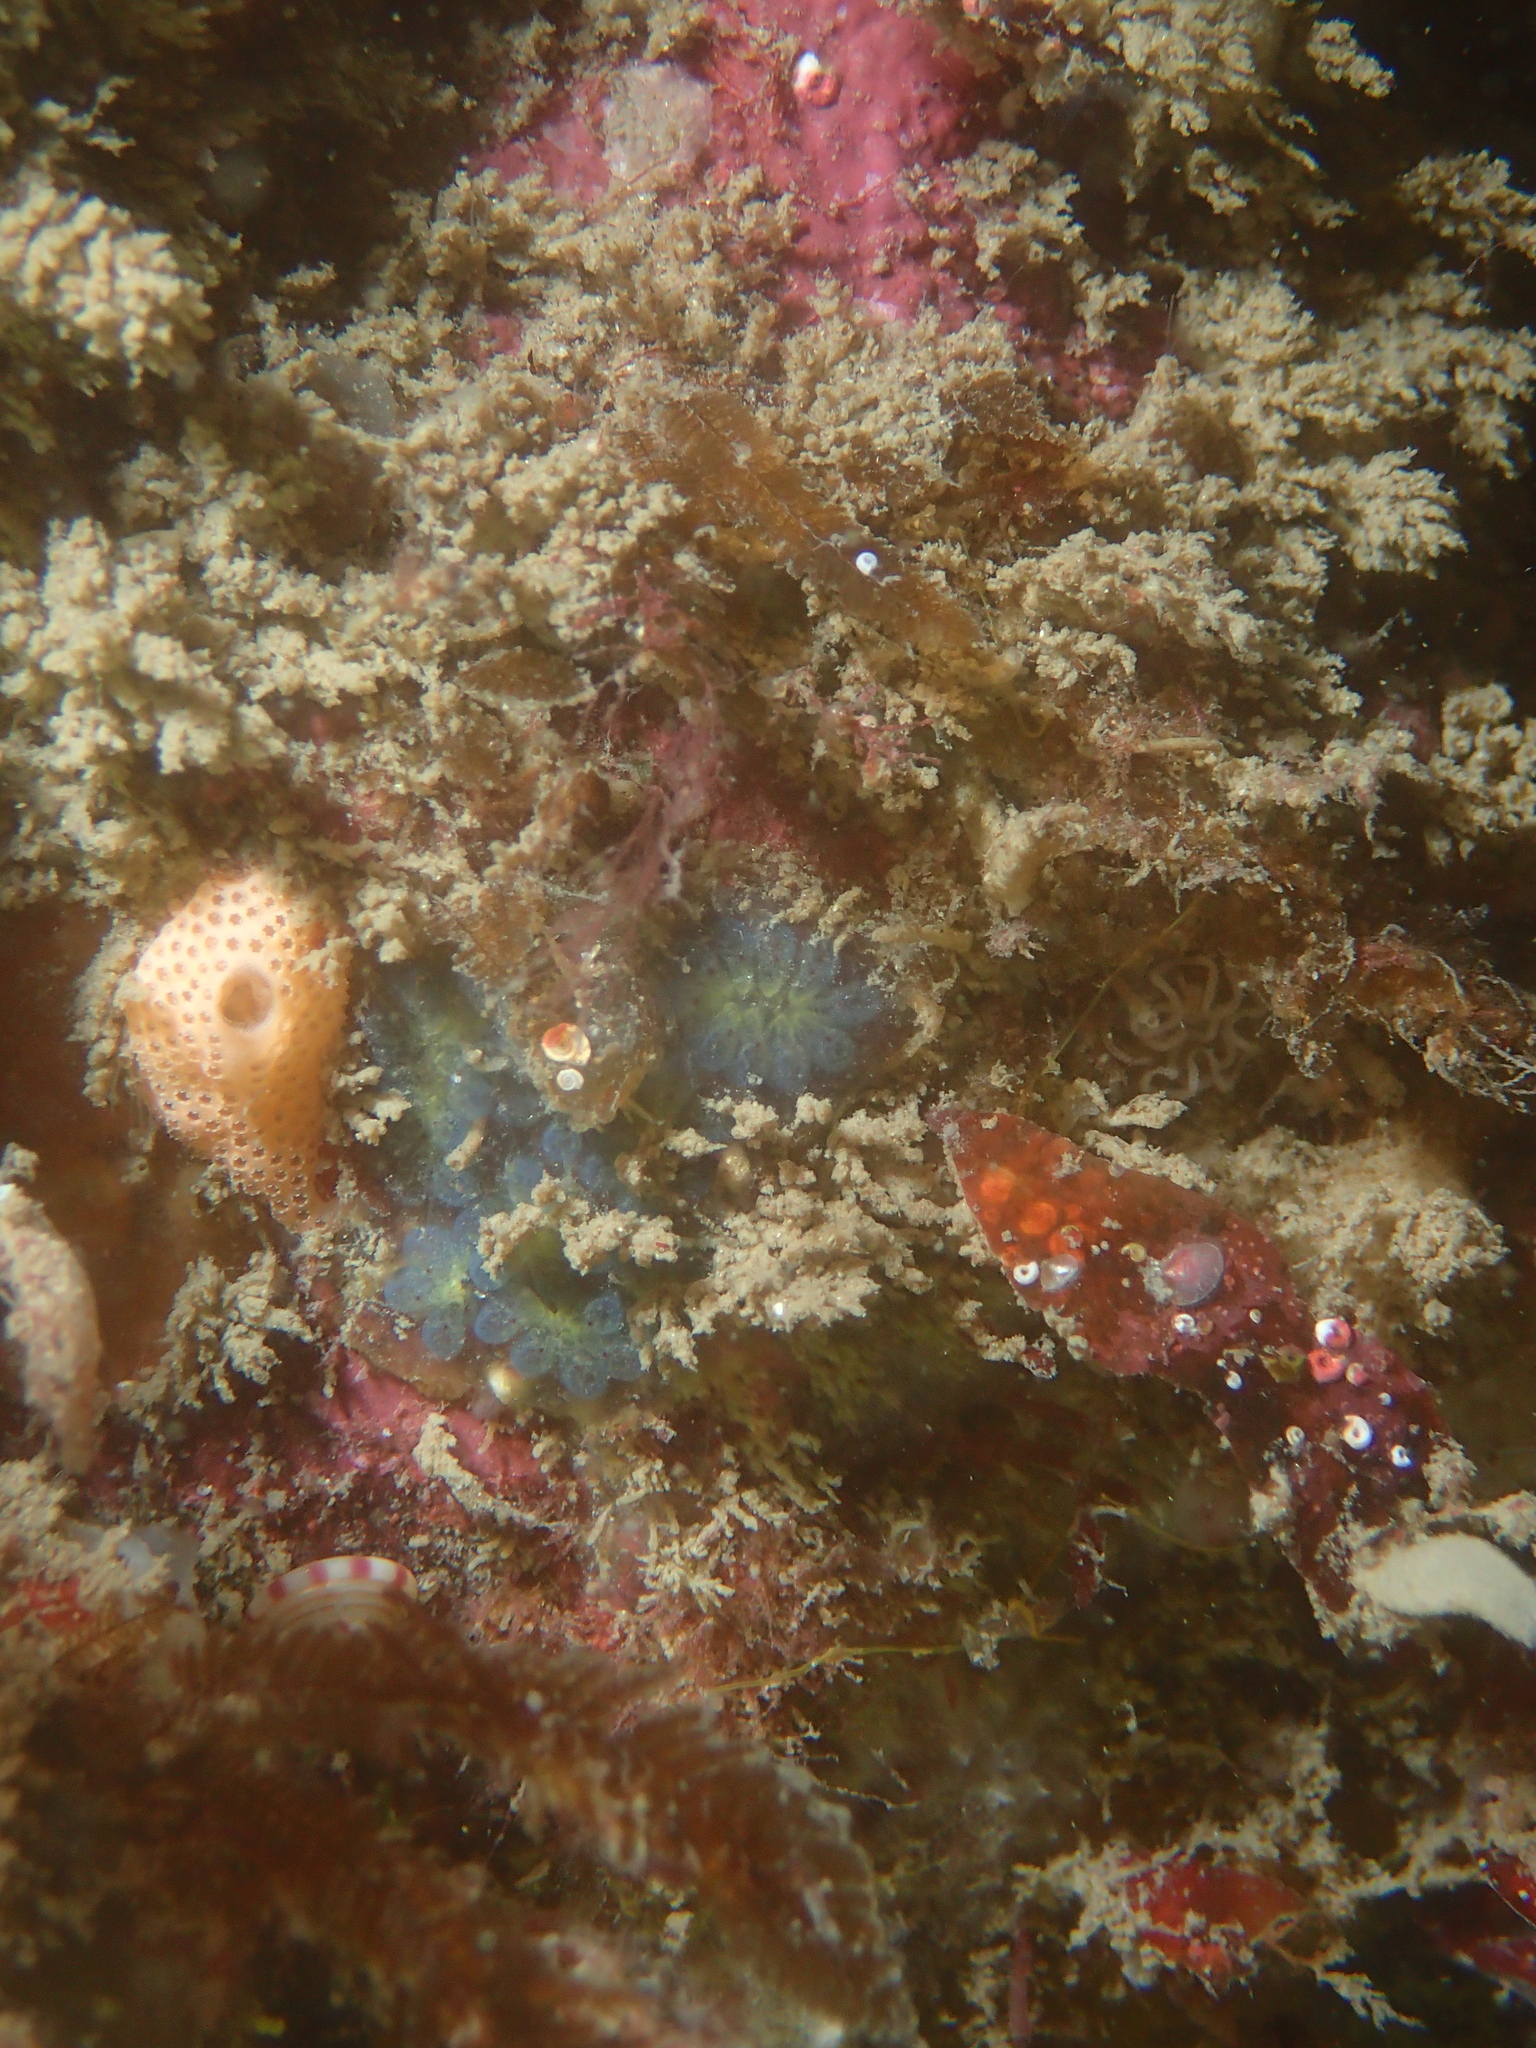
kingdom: Animalia
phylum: Chordata
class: Ascidiacea
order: Stolidobranchia
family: Styelidae
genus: Botryllus
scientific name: Botryllus schlosseri
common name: Golden star tunicate
